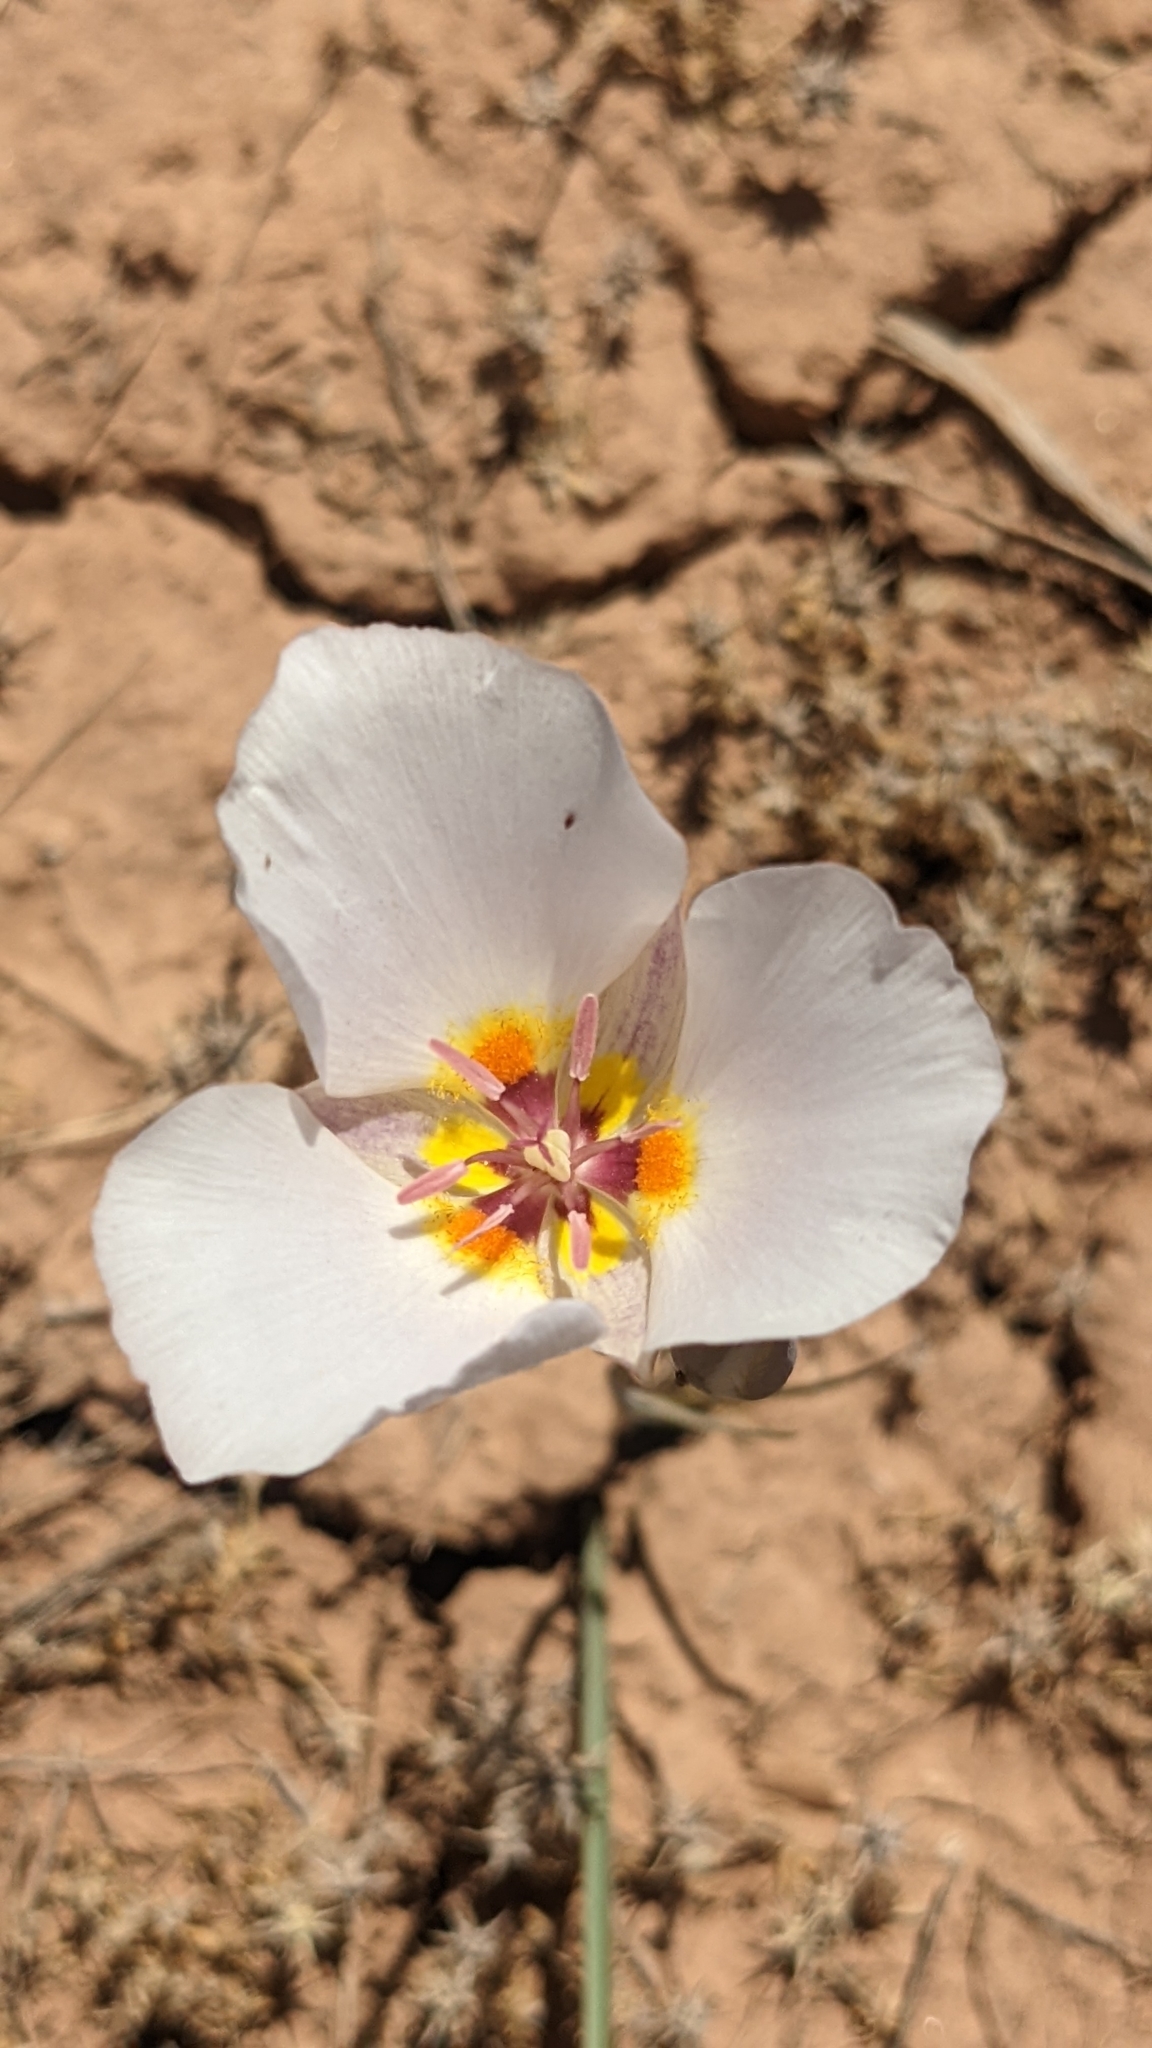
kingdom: Plantae
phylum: Tracheophyta
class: Liliopsida
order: Liliales
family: Liliaceae
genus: Calochortus
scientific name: Calochortus flexuosus
